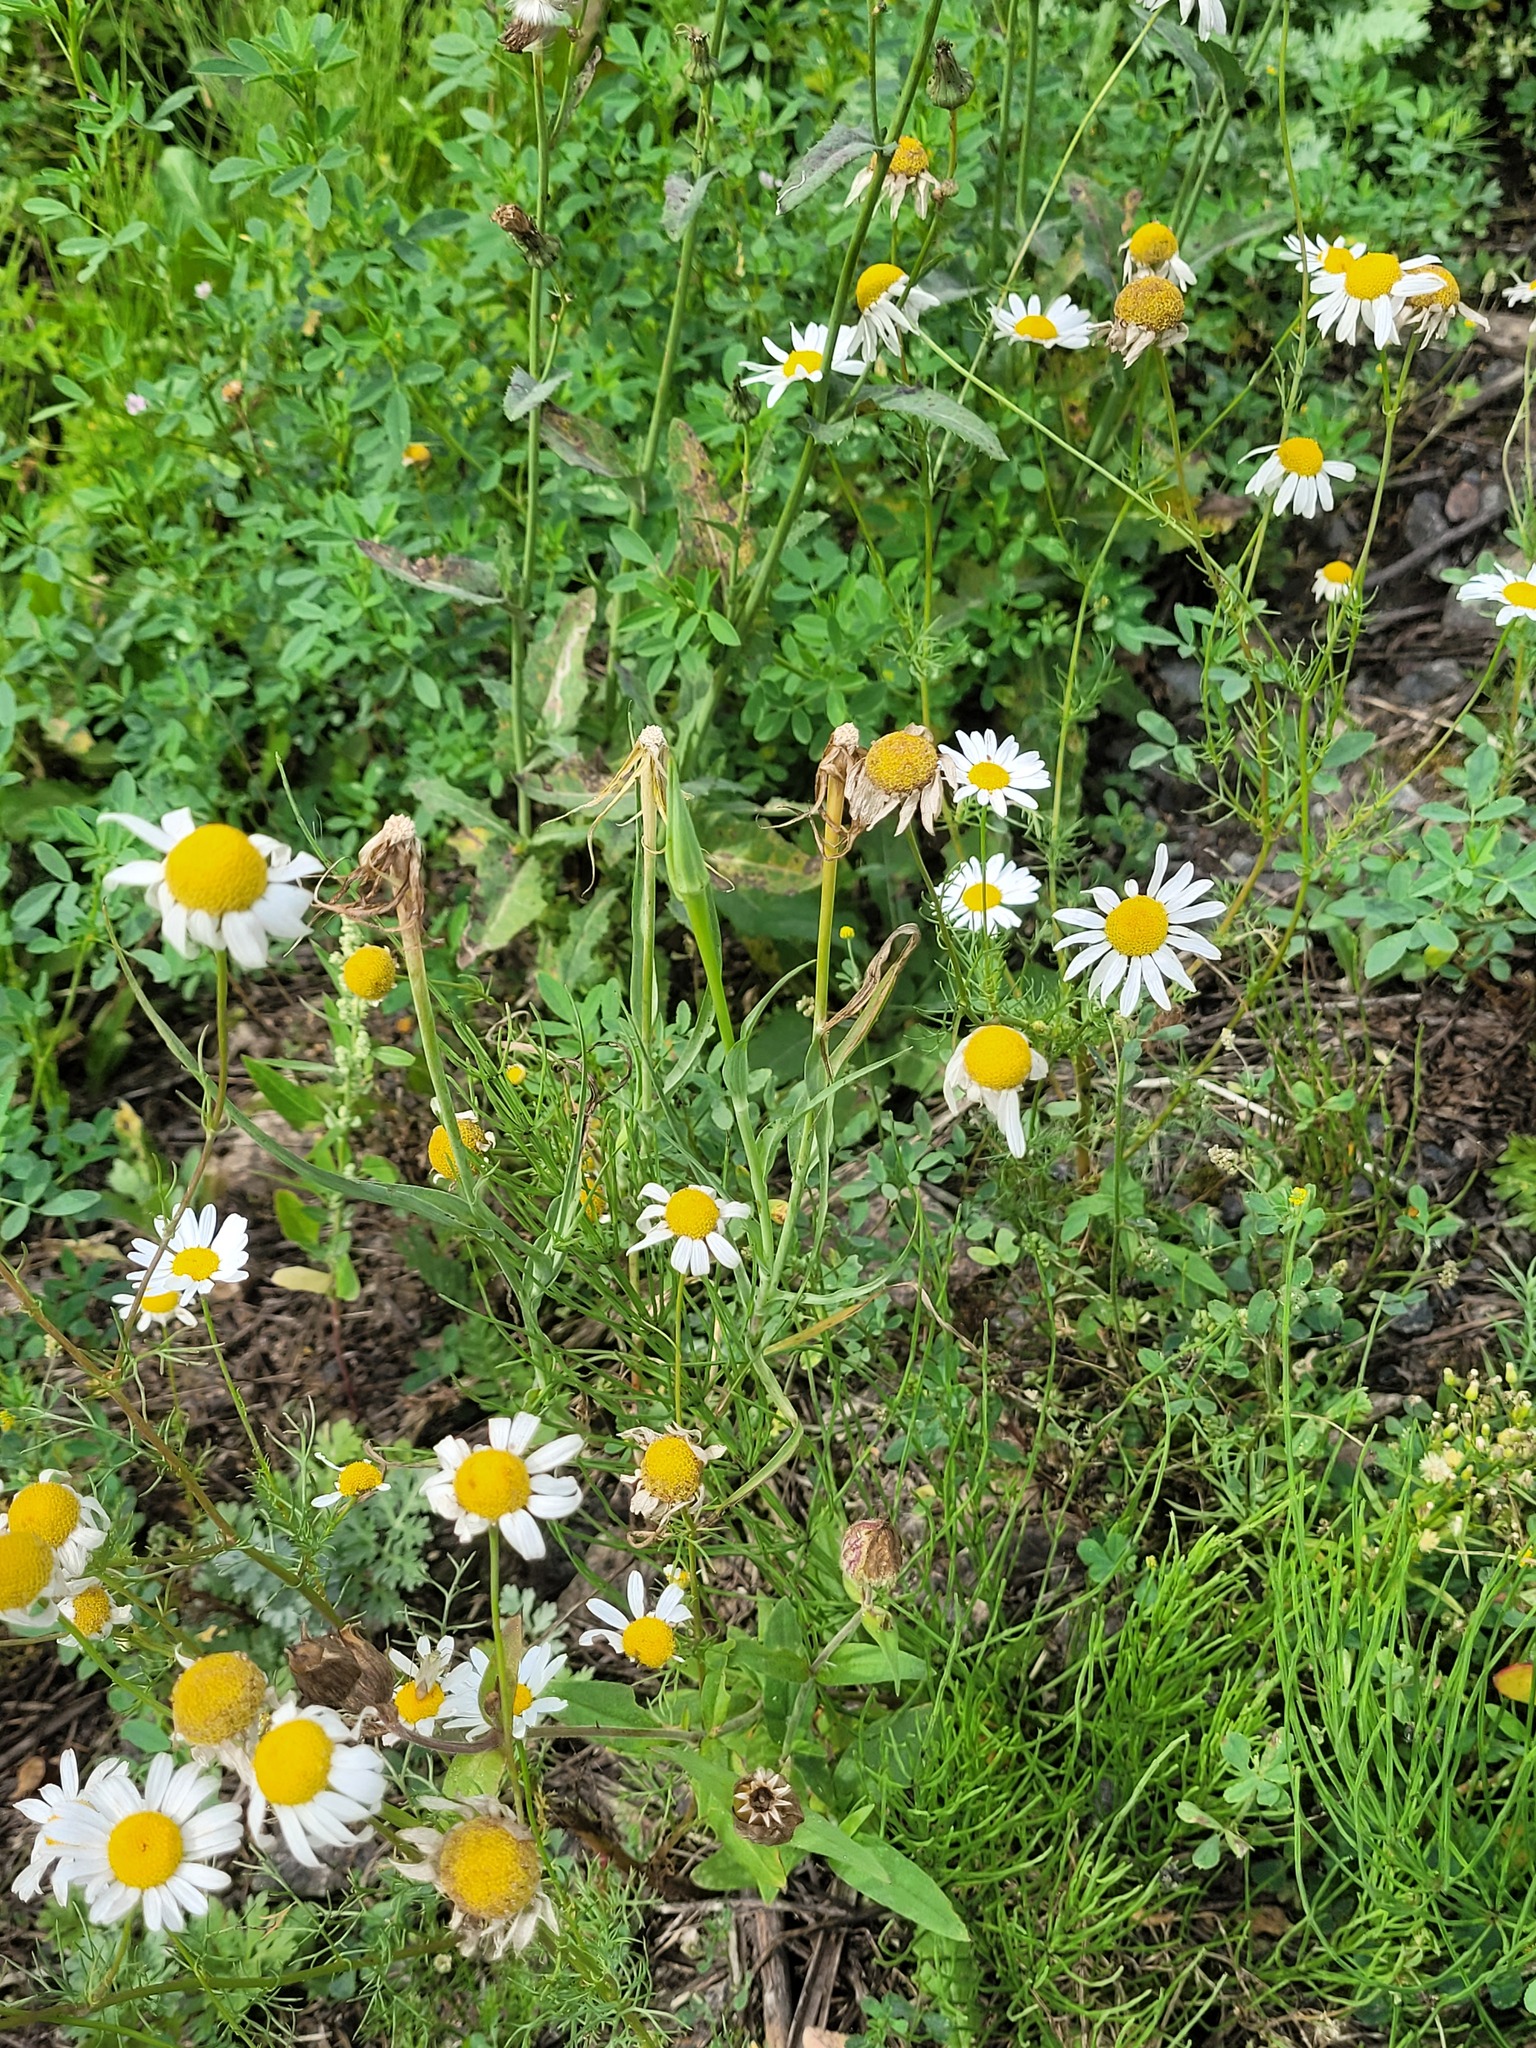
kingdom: Plantae
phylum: Tracheophyta
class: Magnoliopsida
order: Asterales
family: Asteraceae
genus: Tragopogon
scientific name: Tragopogon dubius
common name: Yellow salsify
